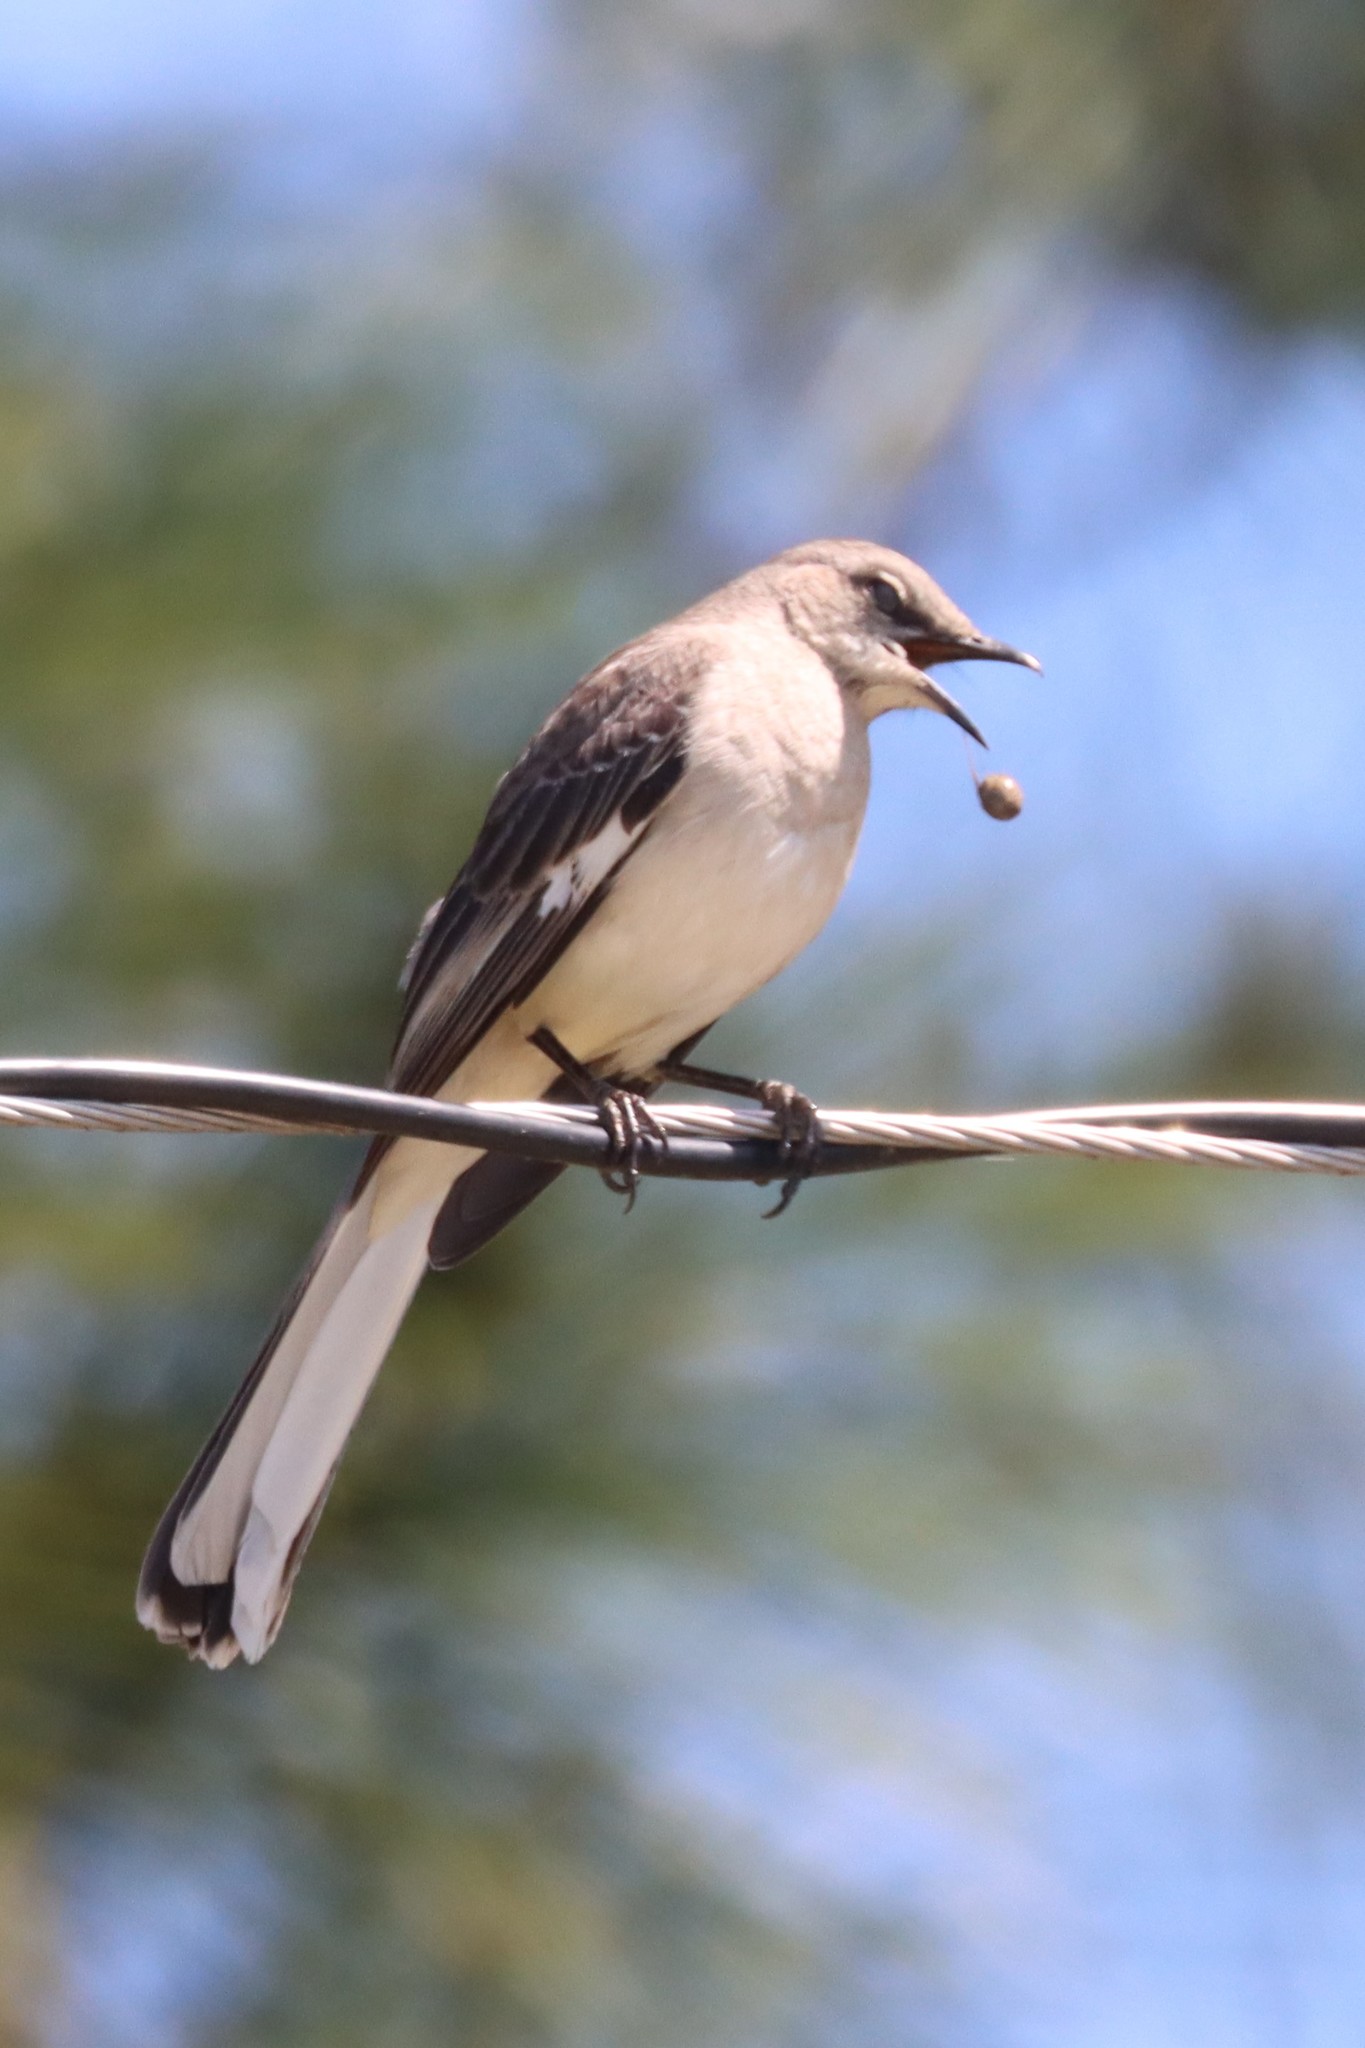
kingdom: Animalia
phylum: Chordata
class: Aves
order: Passeriformes
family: Mimidae
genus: Mimus
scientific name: Mimus polyglottos
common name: Northern mockingbird
